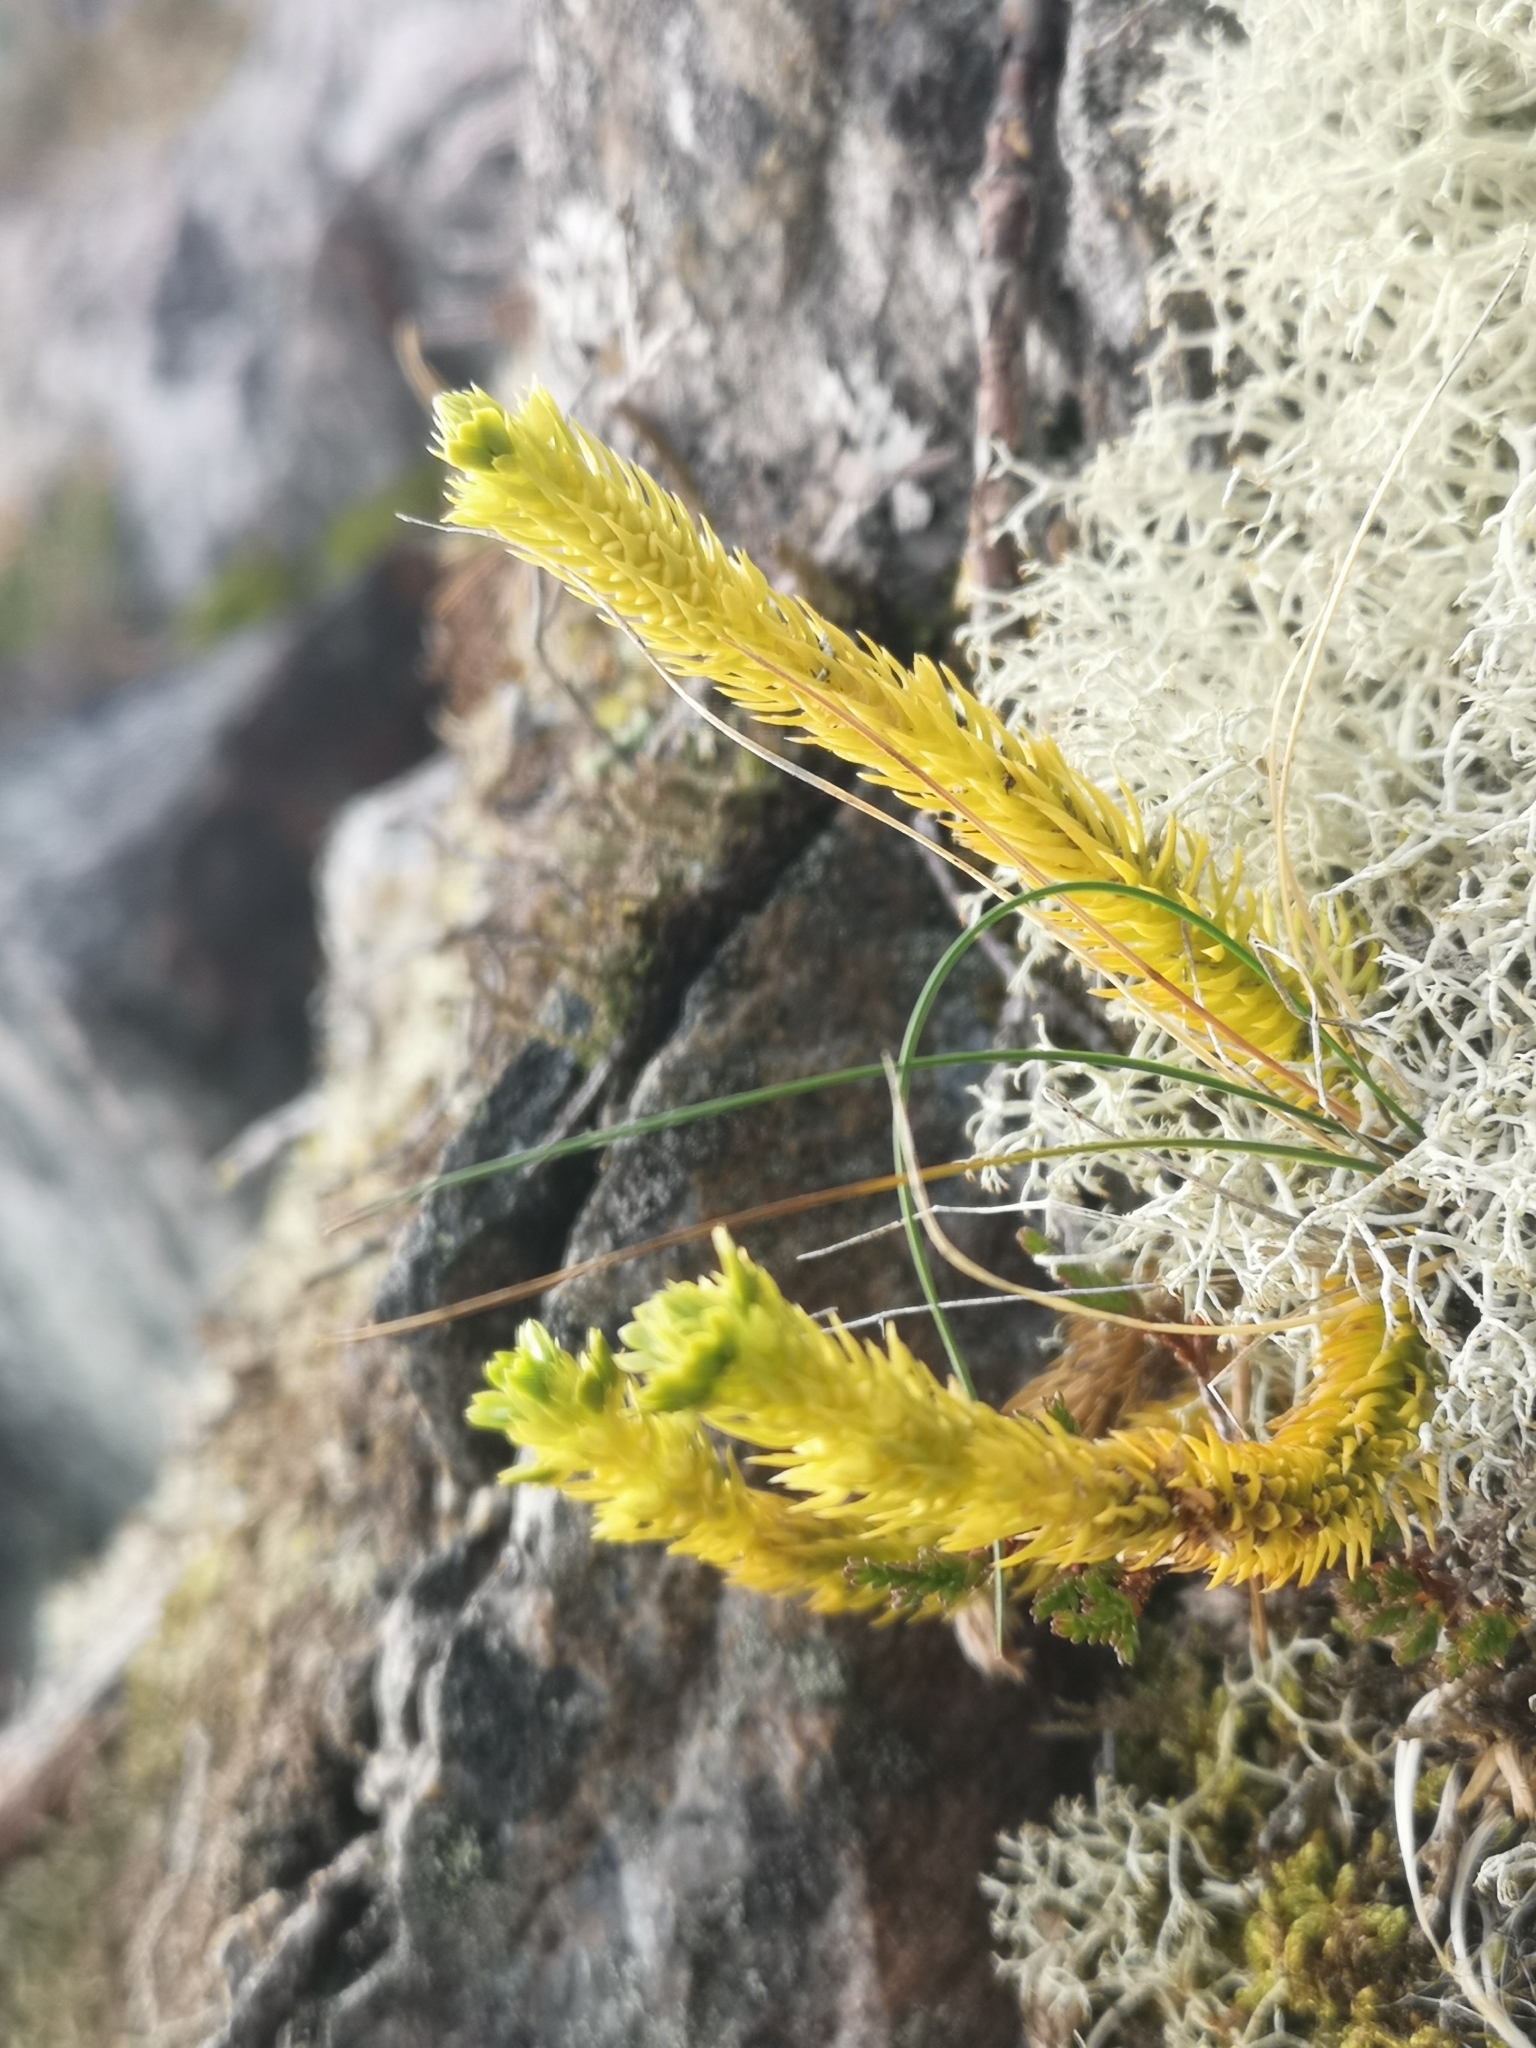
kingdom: Plantae
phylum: Tracheophyta
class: Lycopodiopsida
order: Lycopodiales
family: Lycopodiaceae
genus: Huperzia
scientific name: Huperzia selago
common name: Northern firmoss
